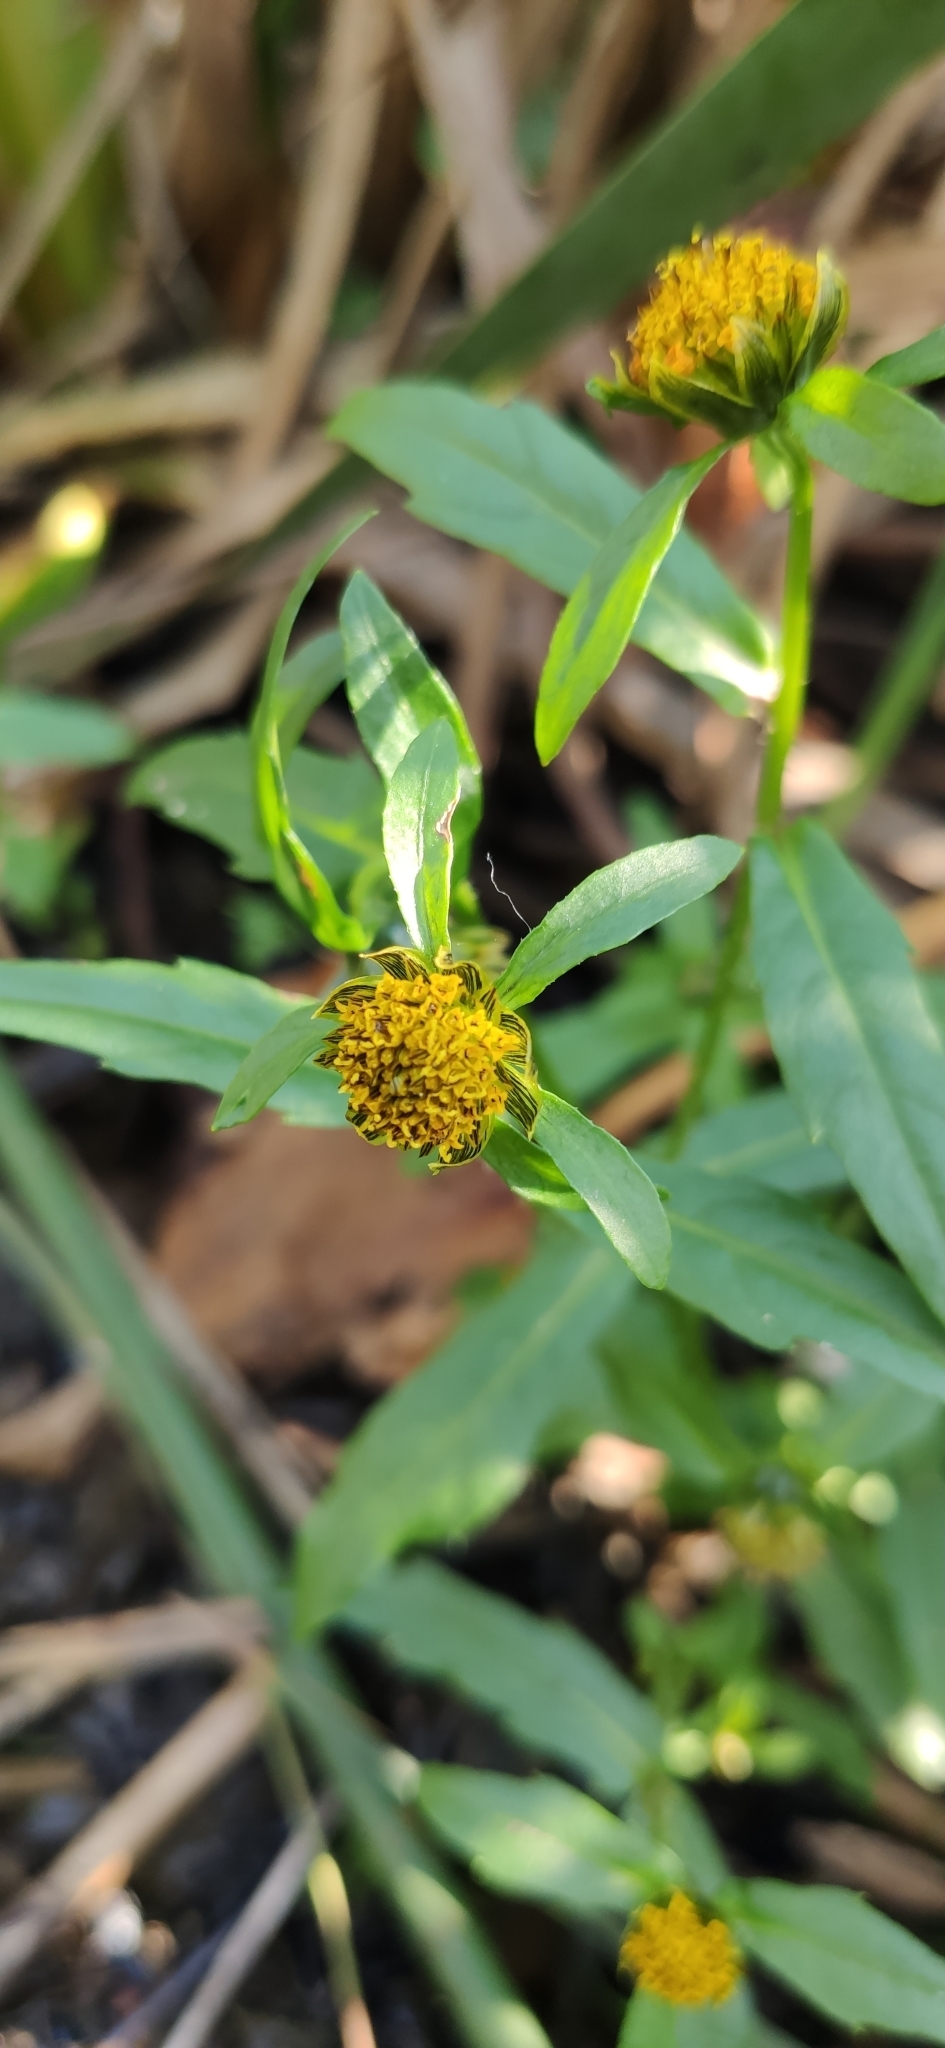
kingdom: Plantae
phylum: Tracheophyta
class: Magnoliopsida
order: Asterales
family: Asteraceae
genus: Bidens
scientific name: Bidens cernua
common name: Nodding bur-marigold
